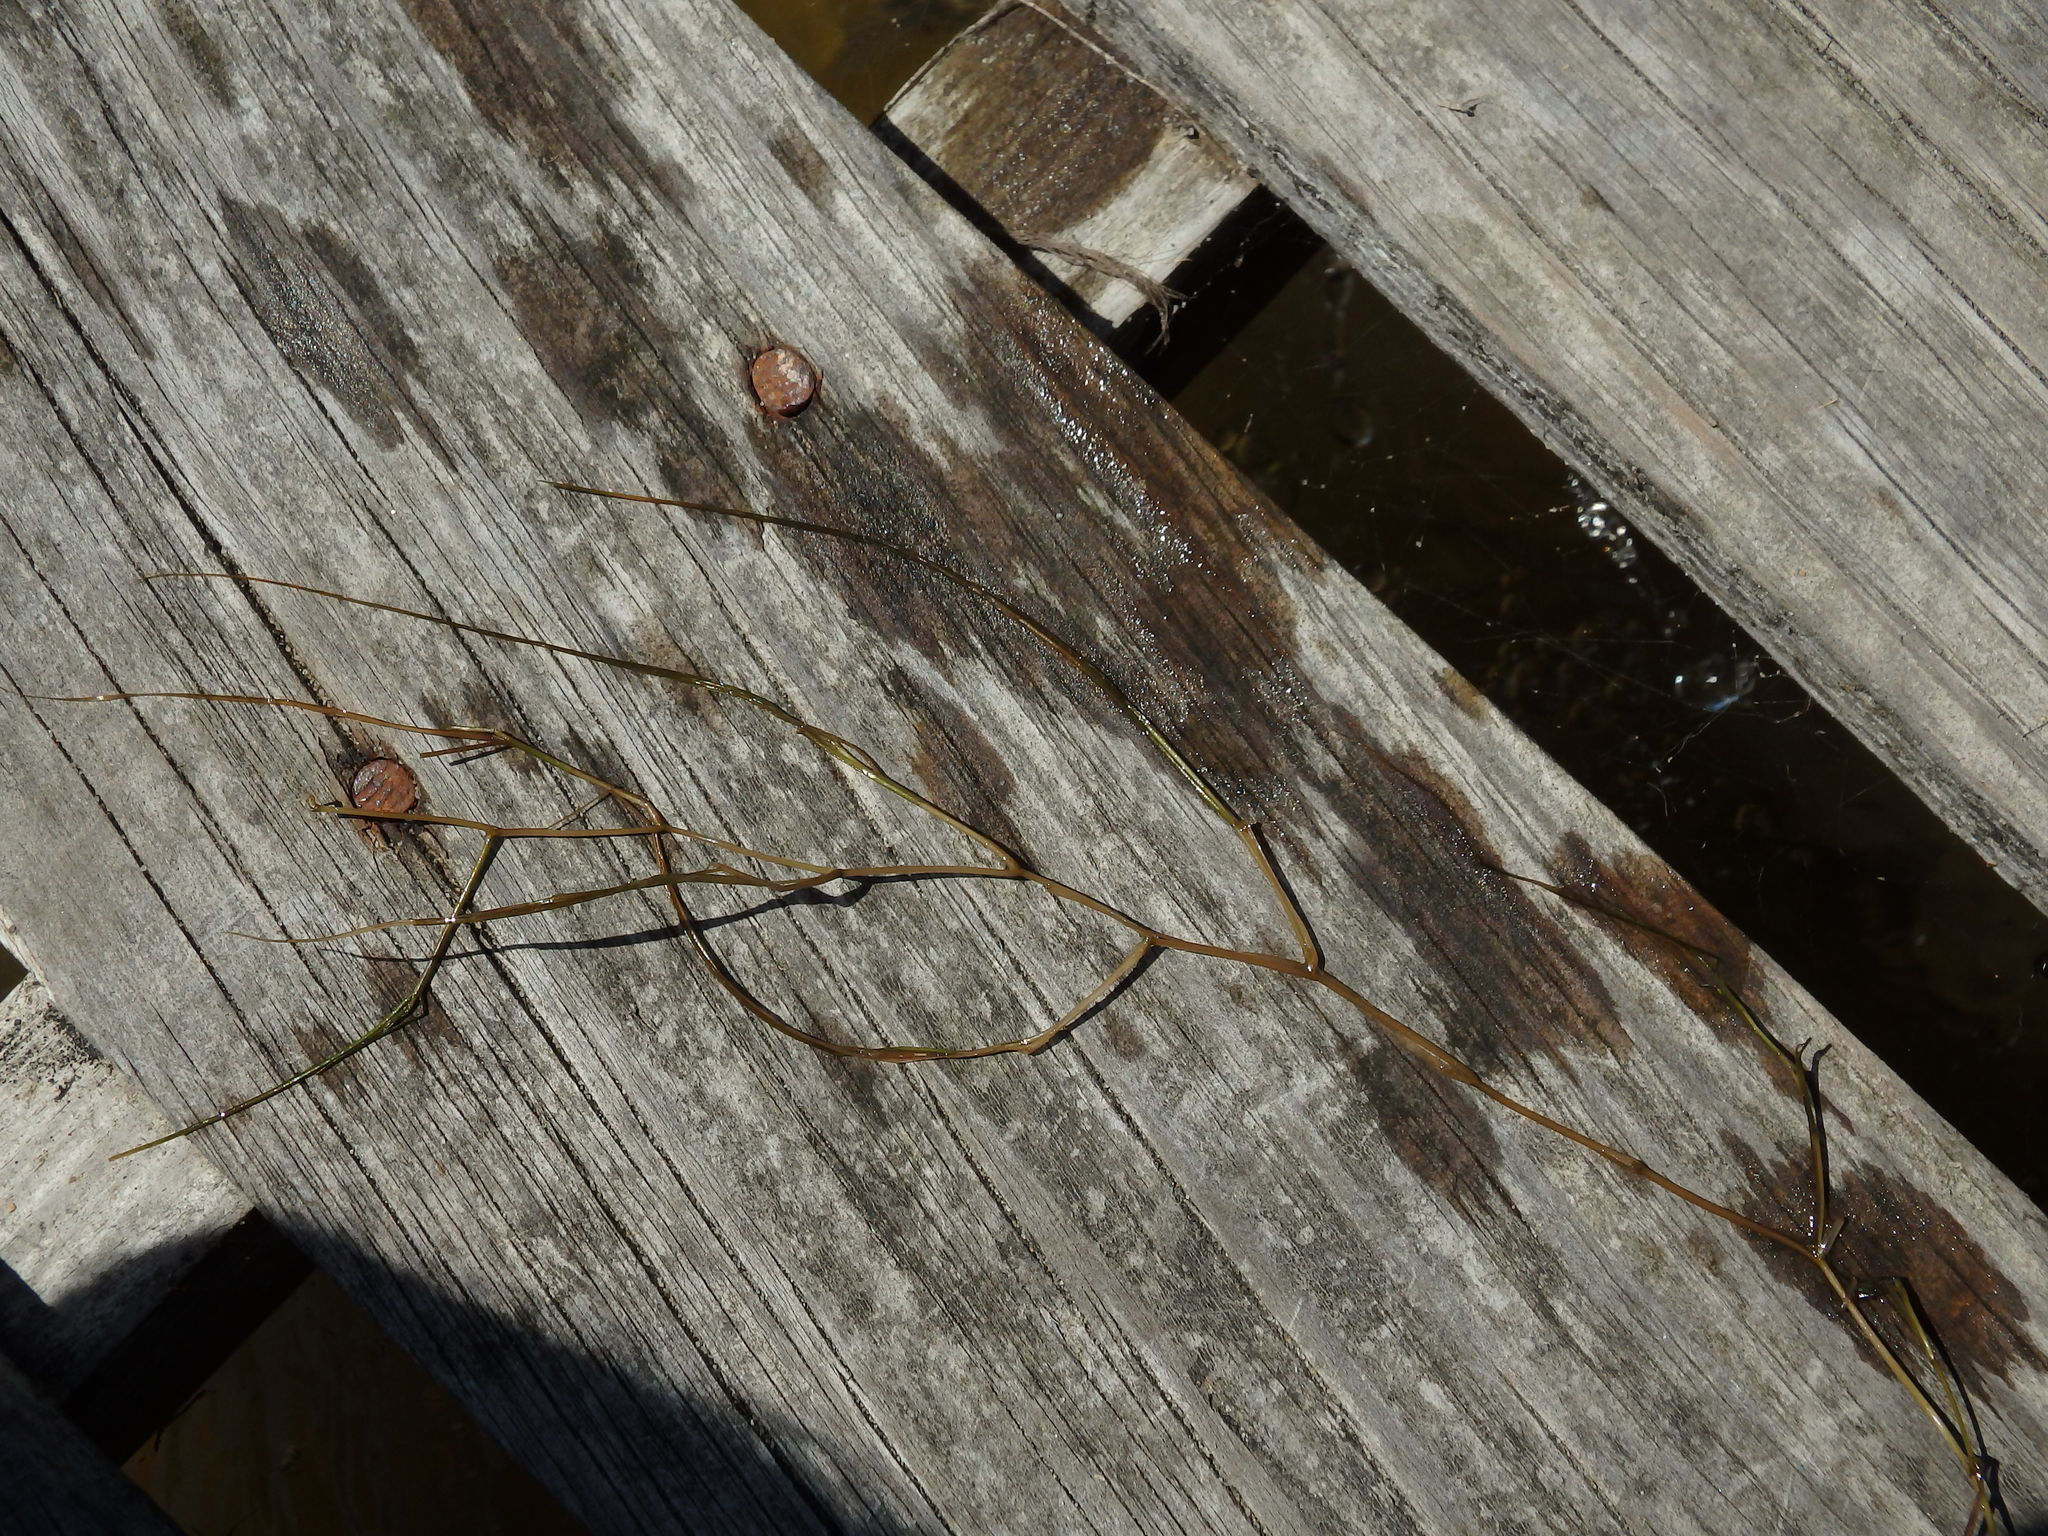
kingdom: Plantae
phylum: Tracheophyta
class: Liliopsida
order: Alismatales
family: Potamogetonaceae
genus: Stuckenia
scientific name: Stuckenia pectinata
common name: Sago pondweed
